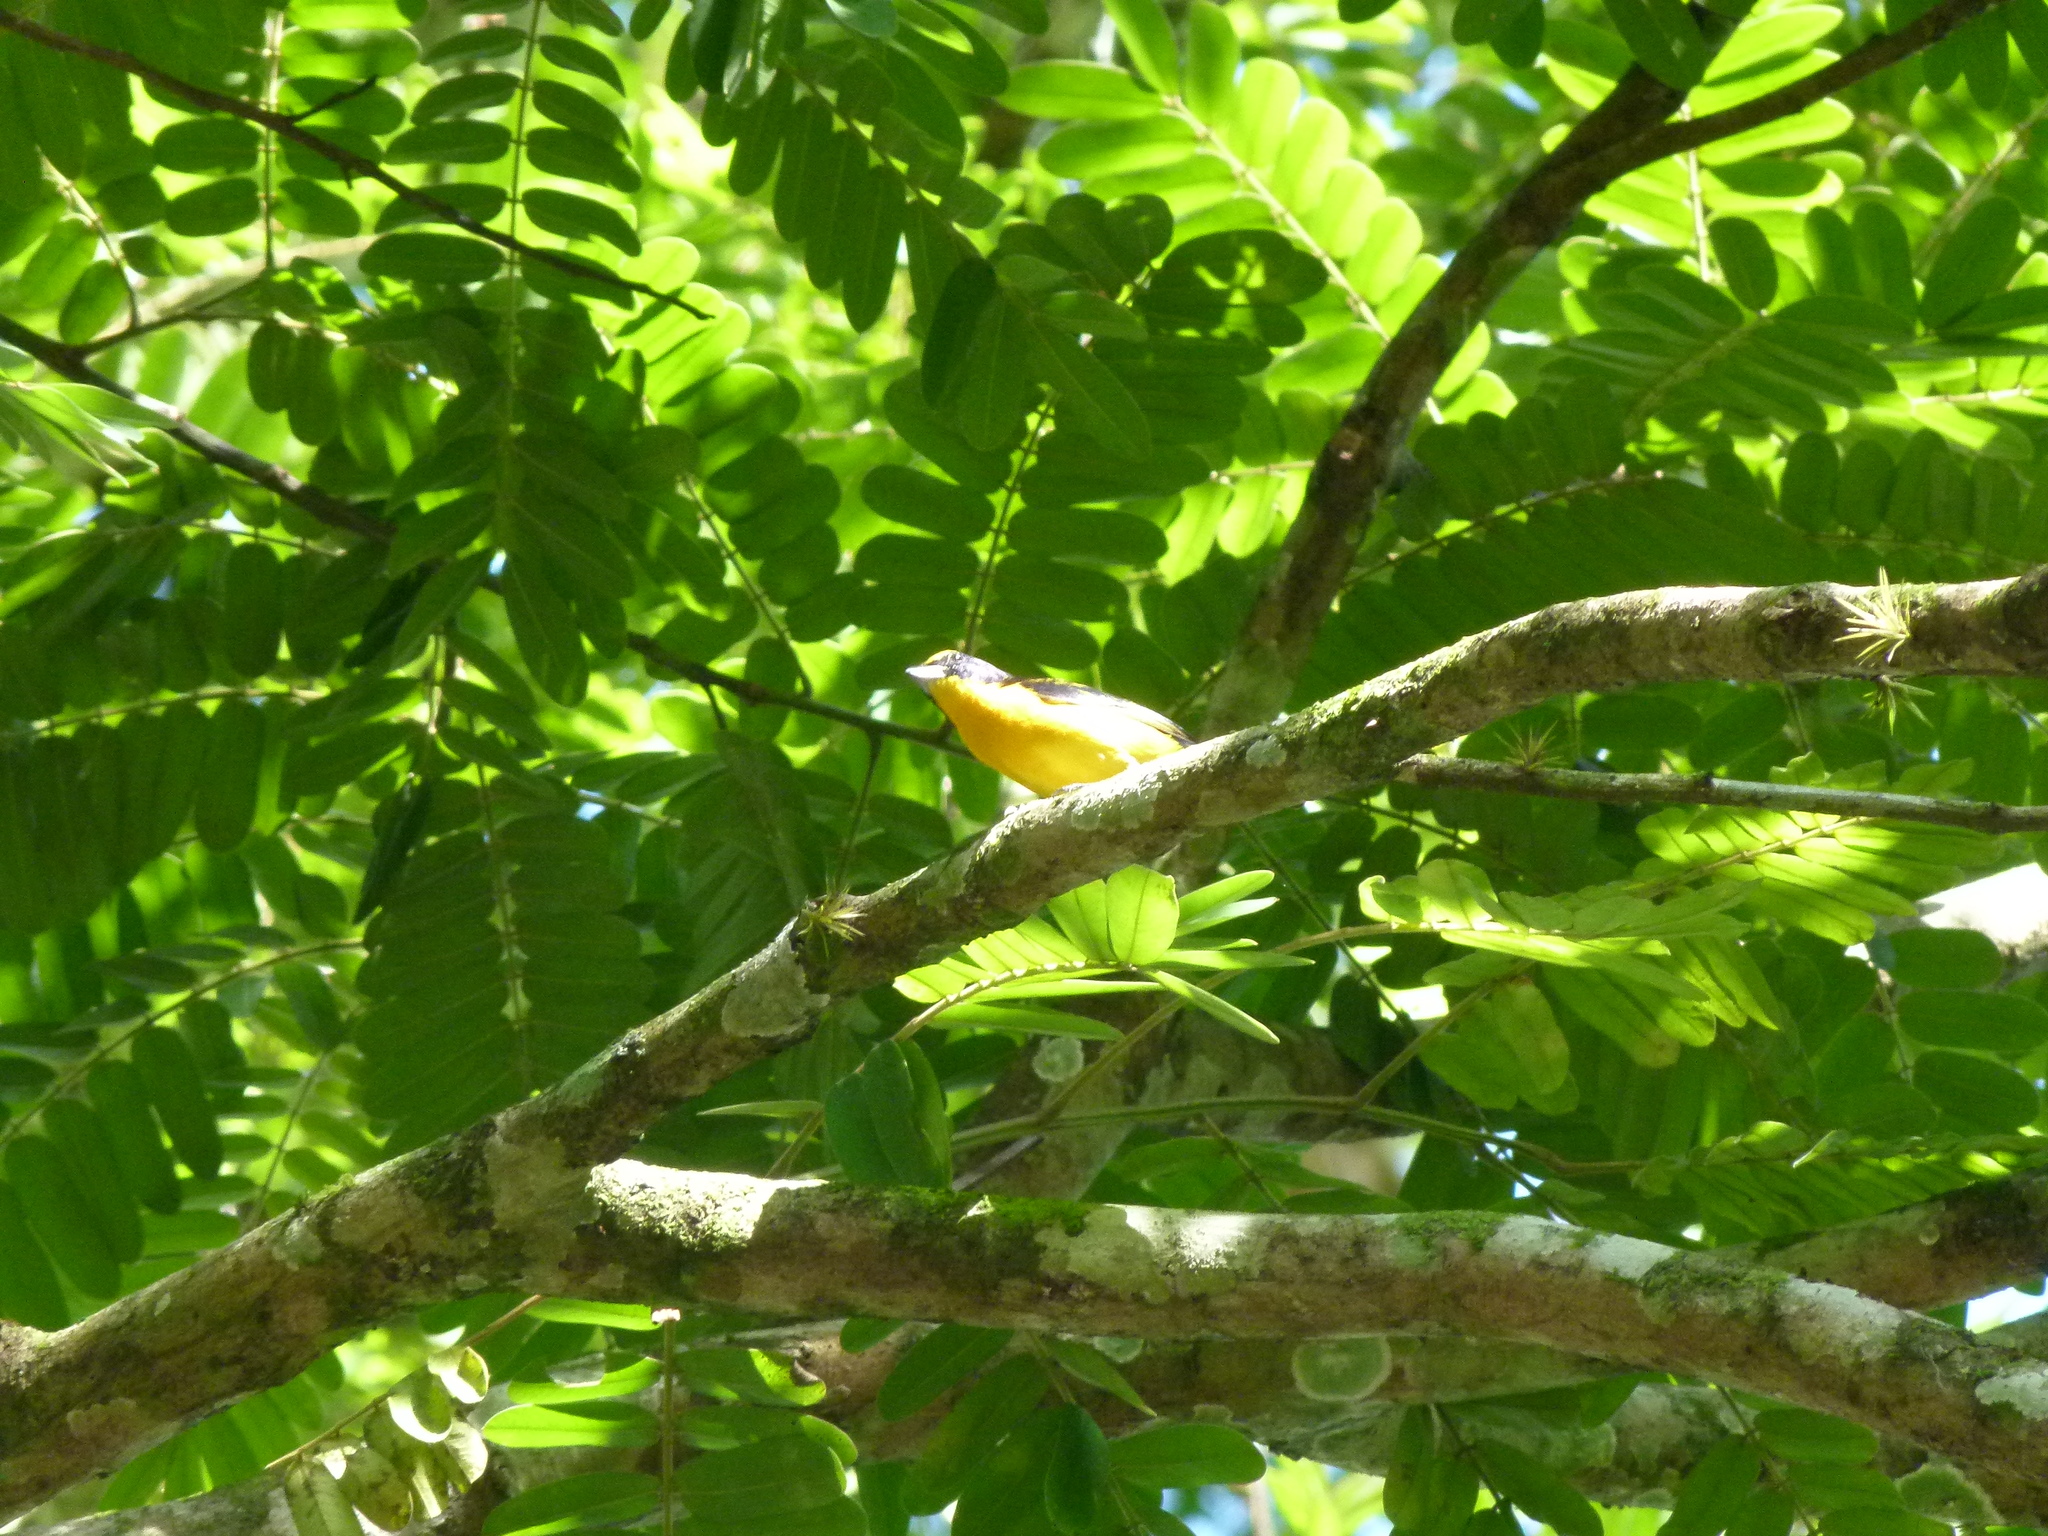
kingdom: Animalia
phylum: Chordata
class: Aves
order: Passeriformes
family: Fringillidae
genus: Euphonia
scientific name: Euphonia laniirostris
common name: Thick-billed euphonia
